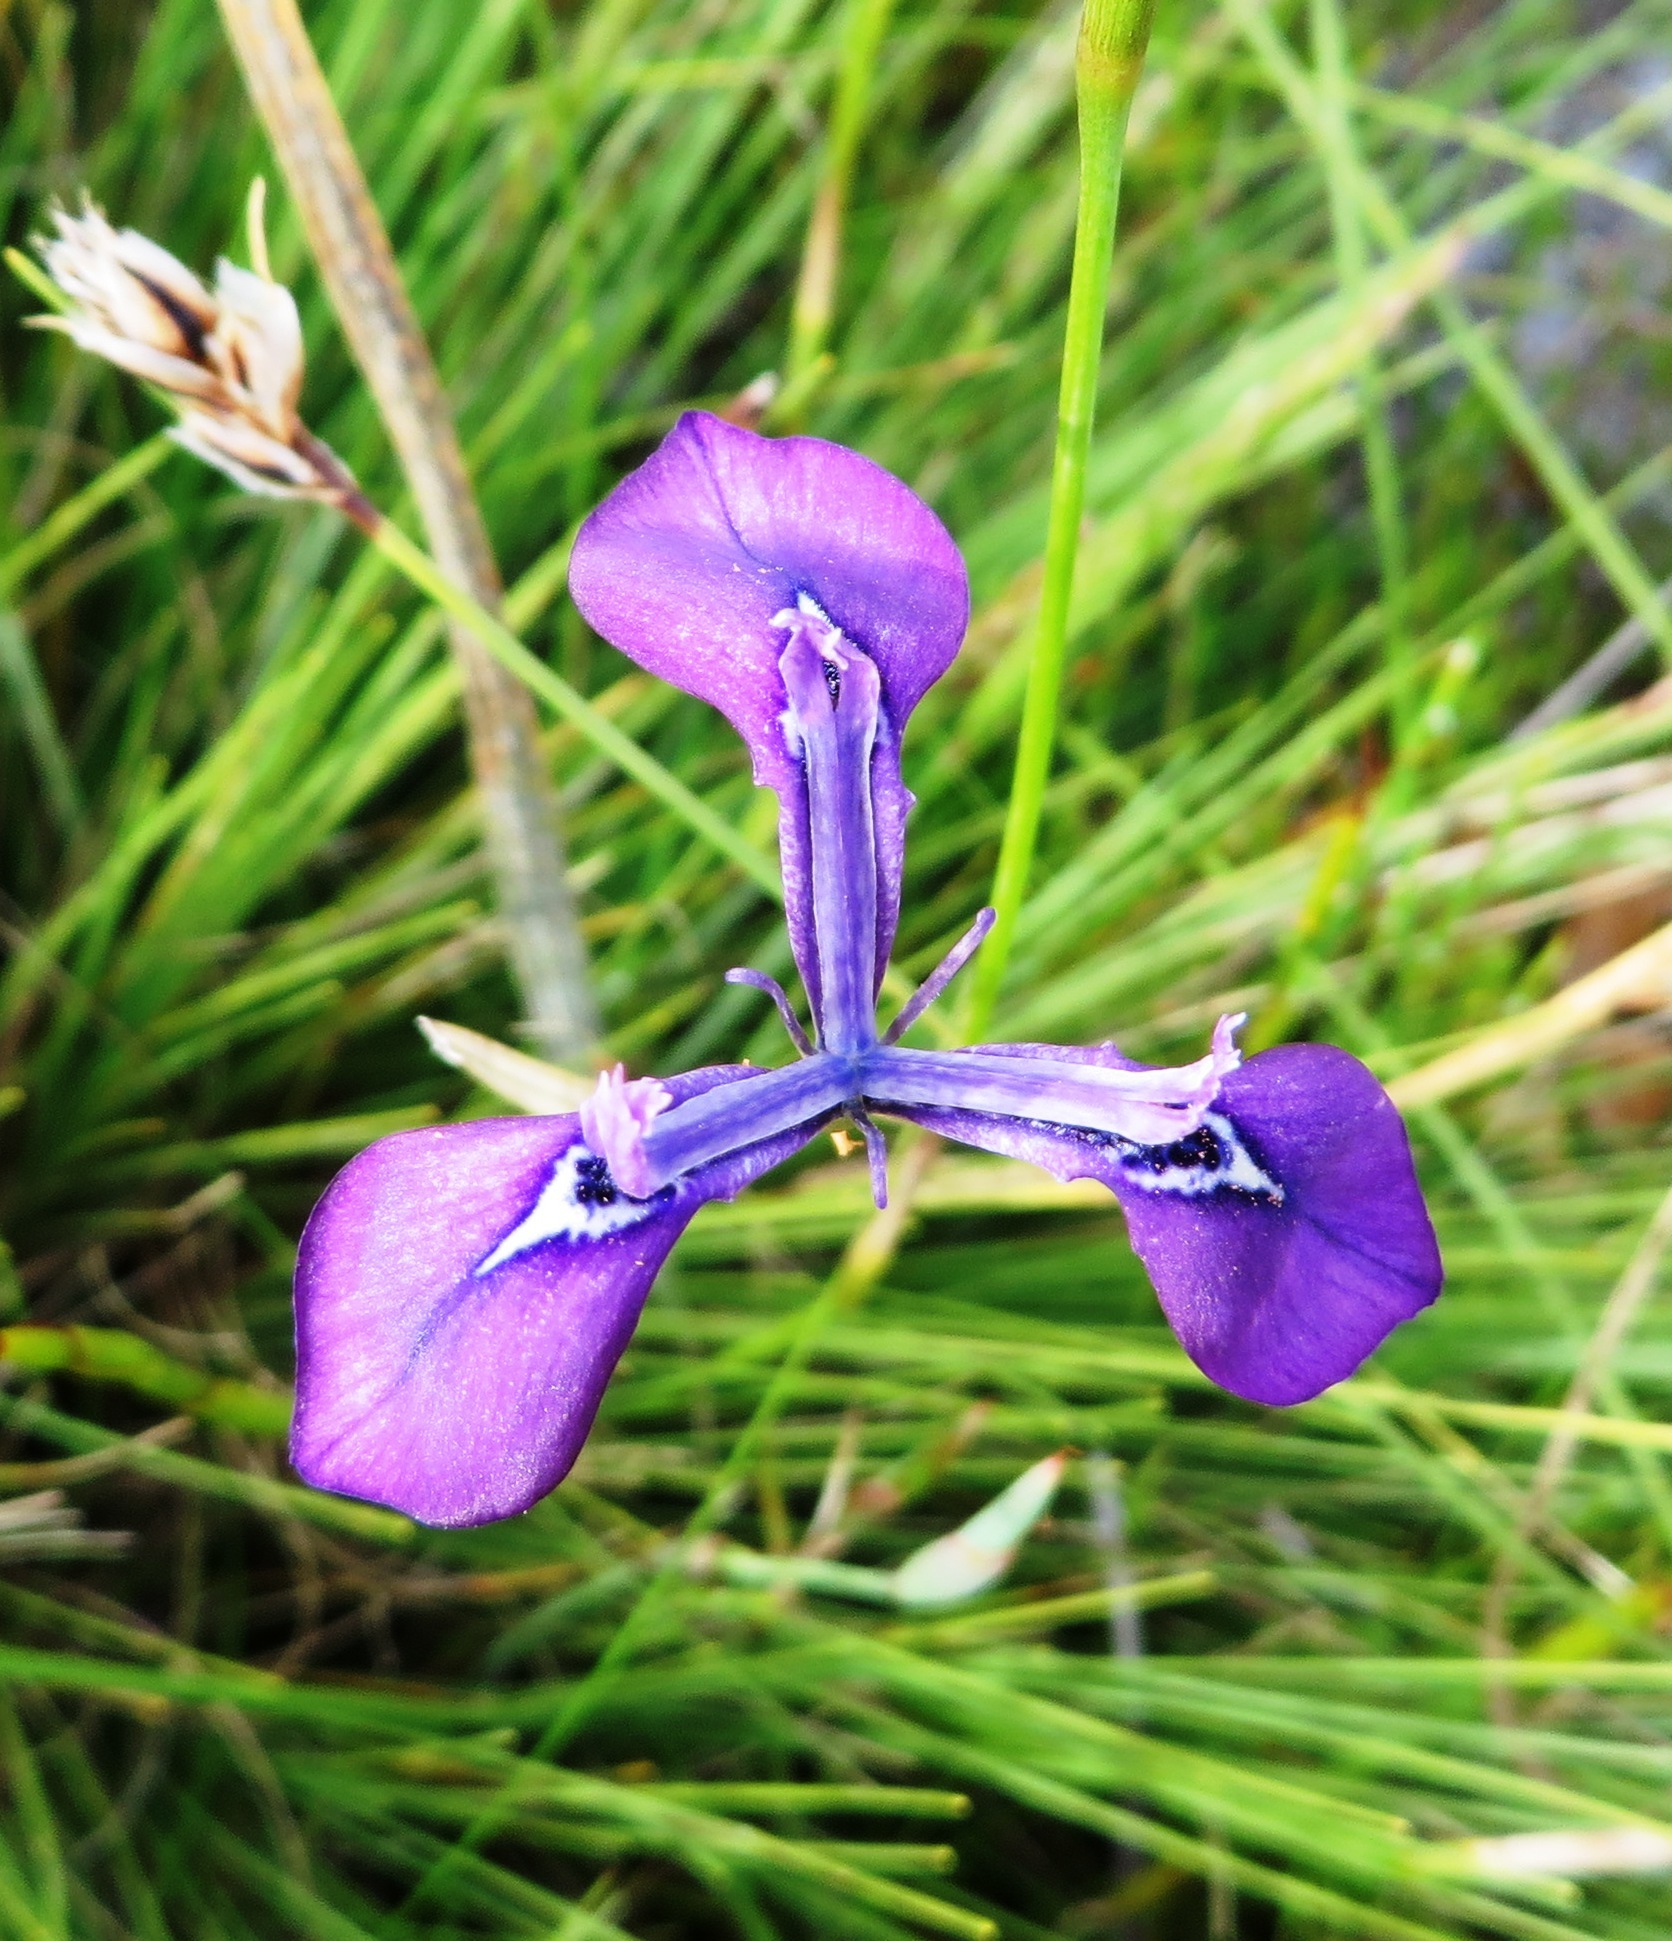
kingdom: Plantae
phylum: Tracheophyta
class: Liliopsida
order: Asparagales
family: Iridaceae
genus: Moraea
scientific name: Moraea tripetala
